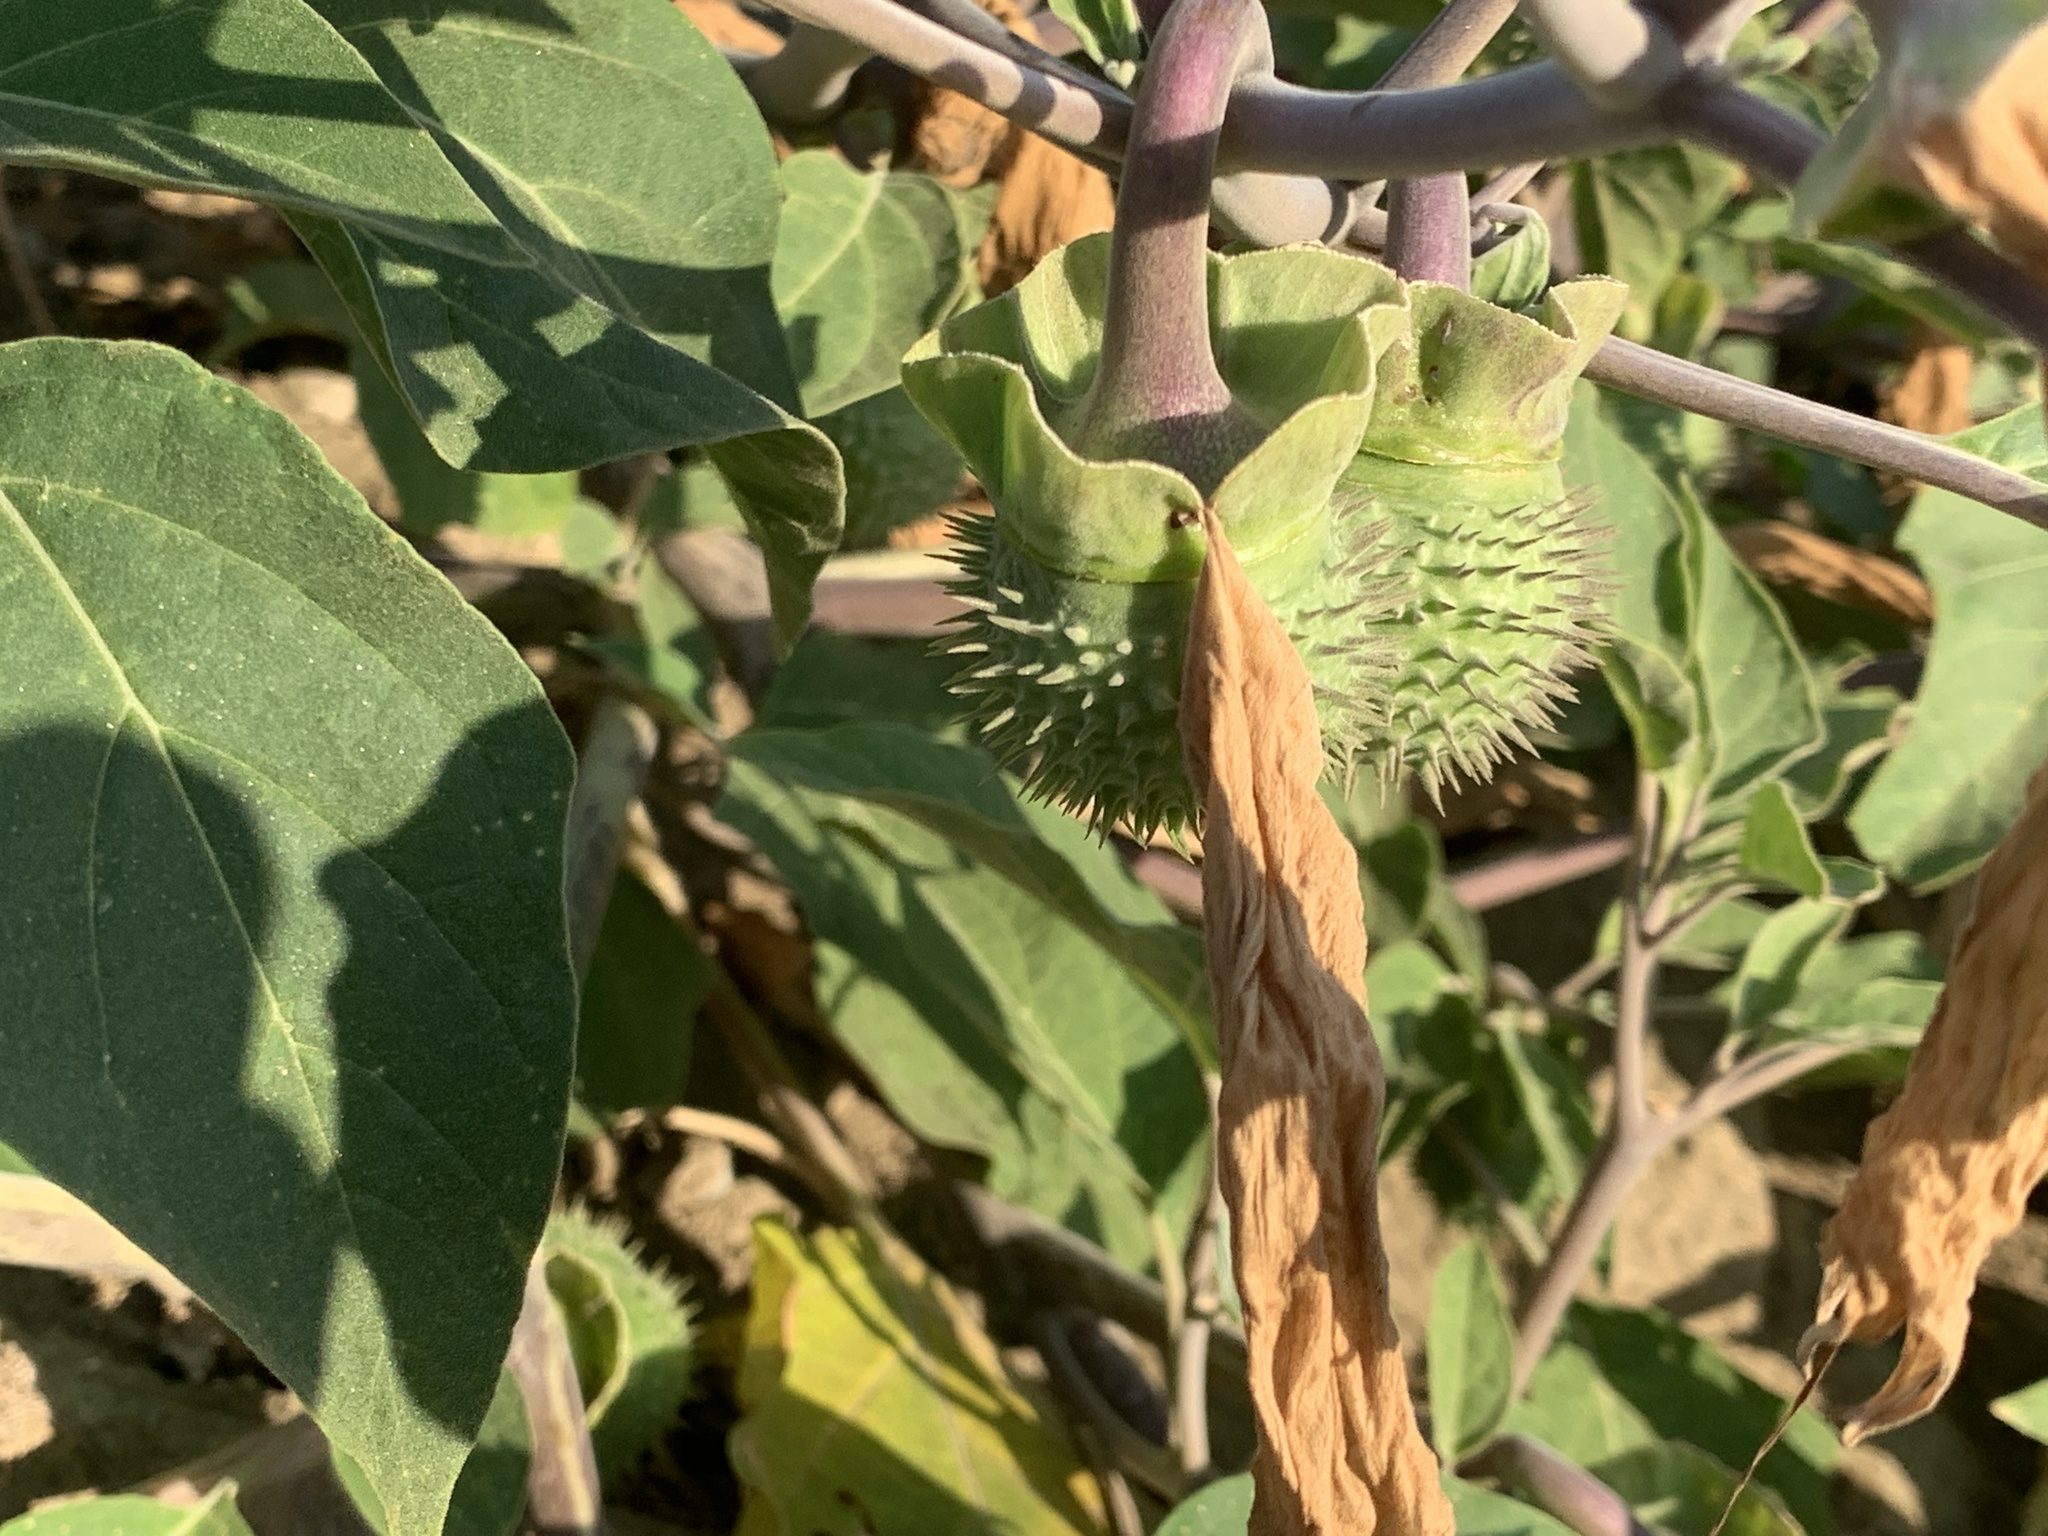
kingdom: Plantae
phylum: Tracheophyta
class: Magnoliopsida
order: Solanales
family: Solanaceae
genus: Datura
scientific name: Datura wrightii
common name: Sacred thorn-apple
